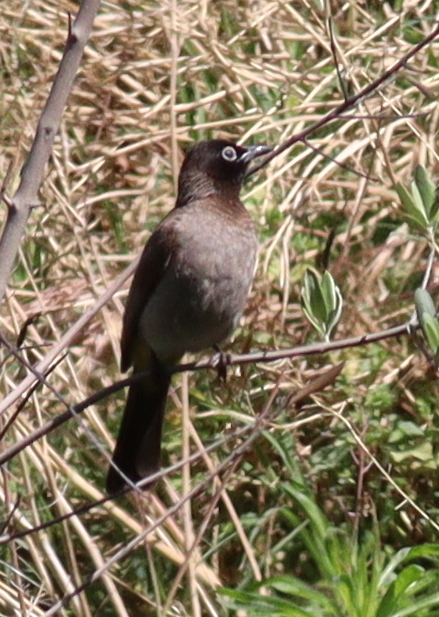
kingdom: Animalia
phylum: Chordata
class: Aves
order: Passeriformes
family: Pycnonotidae
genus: Pycnonotus
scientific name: Pycnonotus xanthopygos
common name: White-spectacled bulbul
